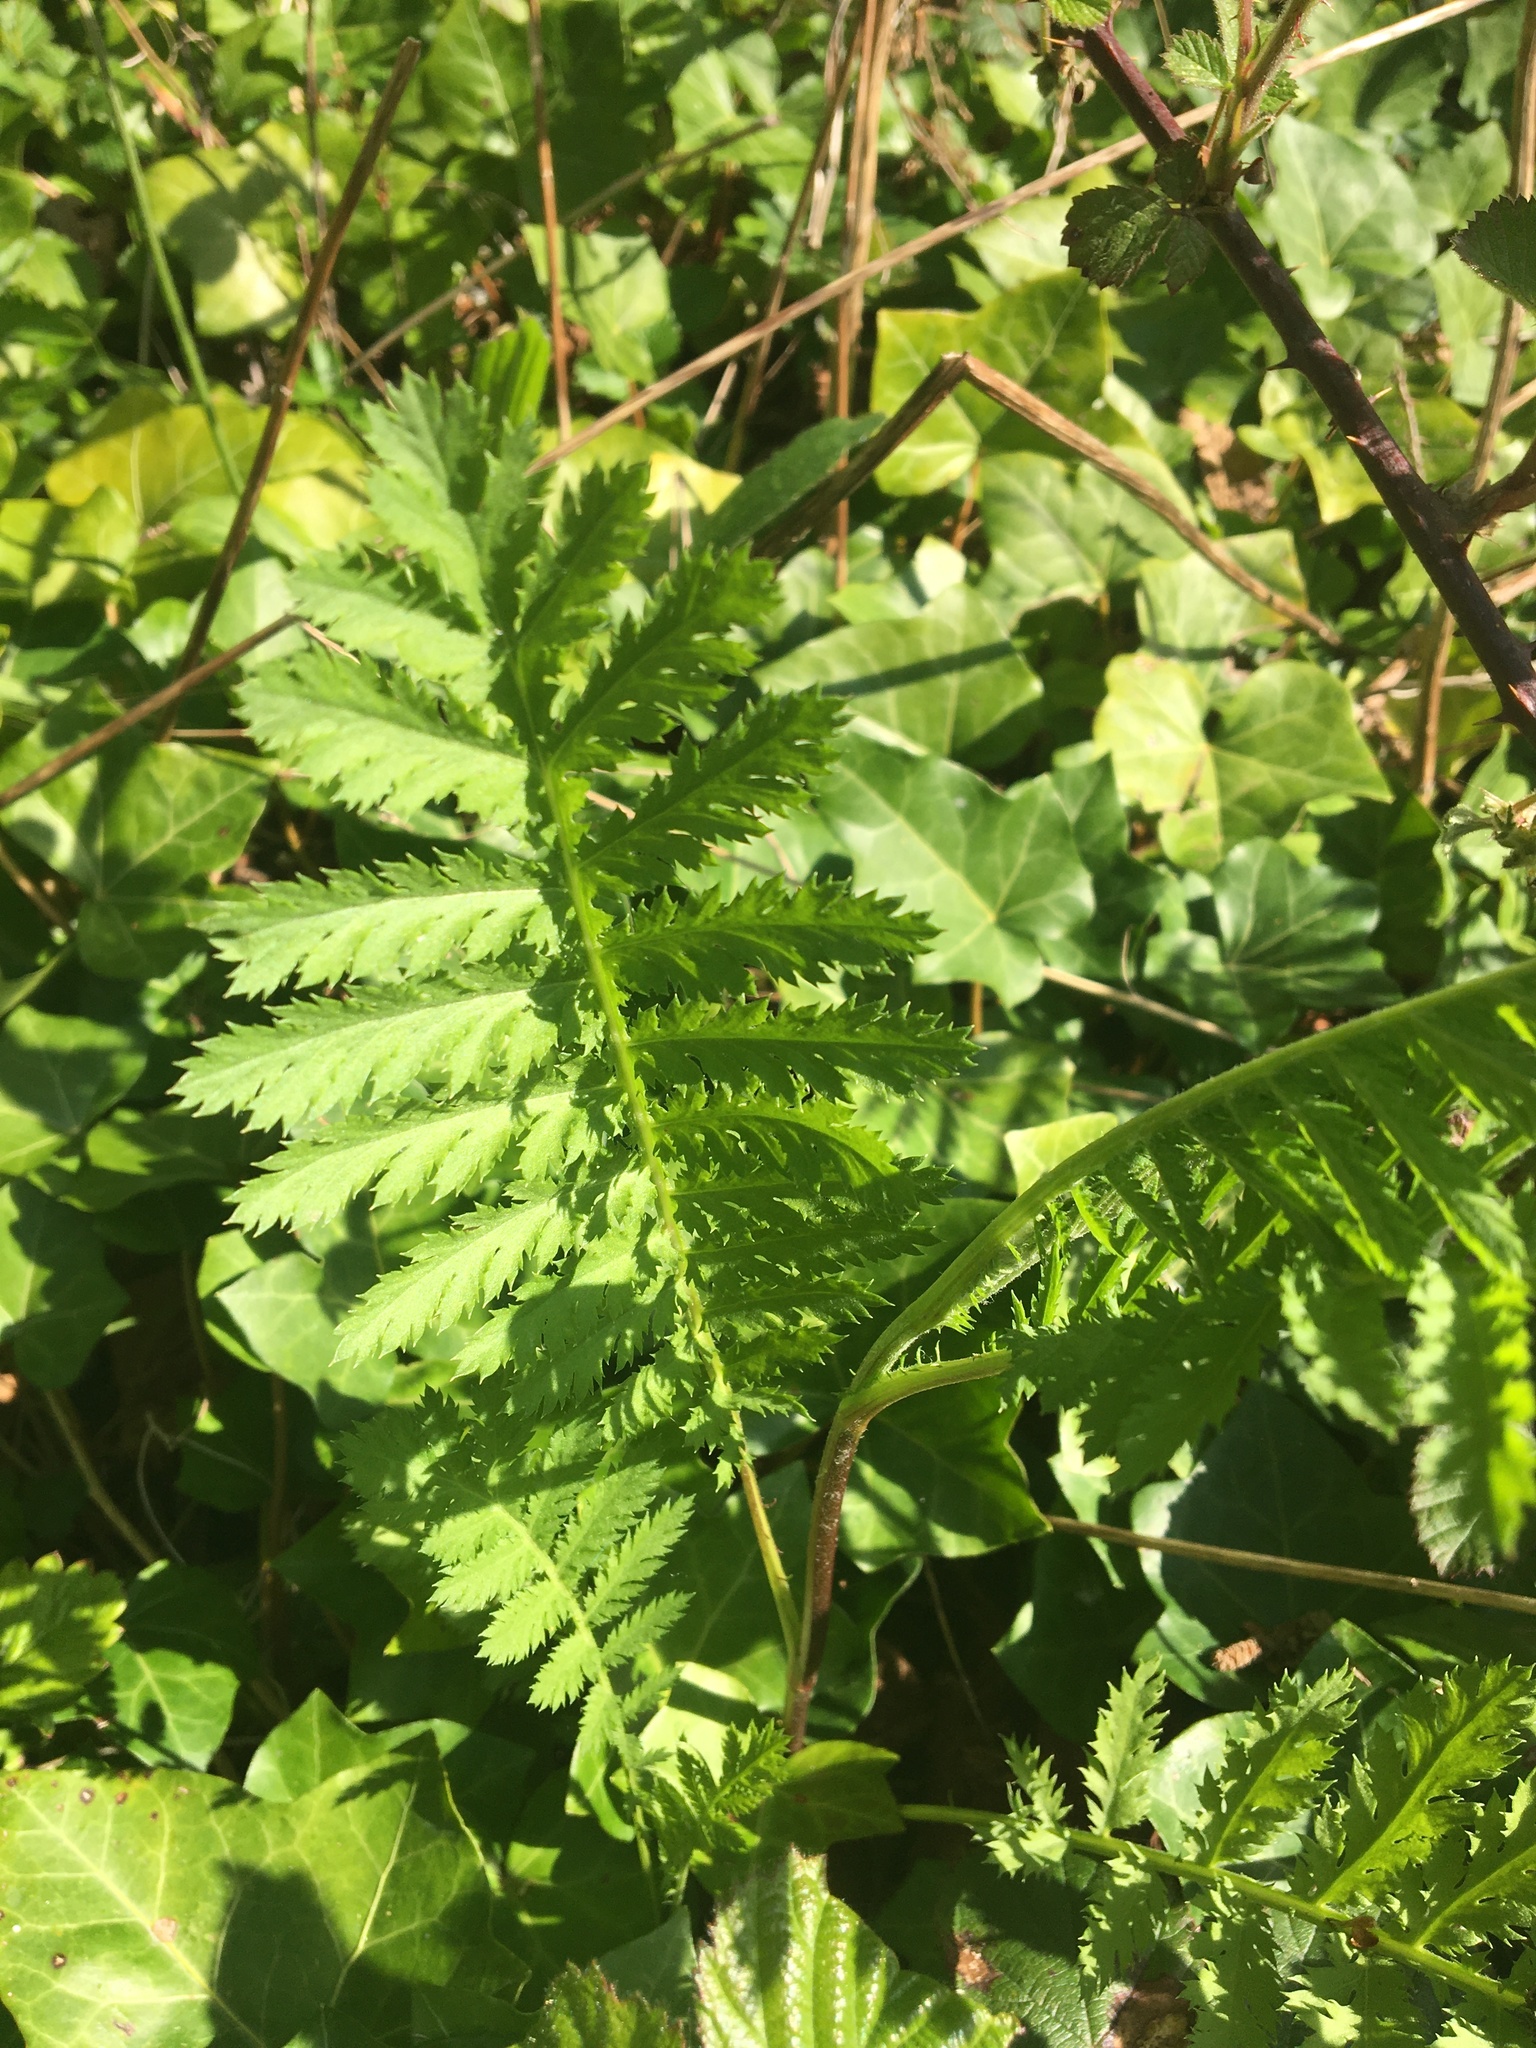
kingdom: Plantae
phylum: Tracheophyta
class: Magnoliopsida
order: Asterales
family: Asteraceae
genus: Tanacetum
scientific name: Tanacetum vulgare
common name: Common tansy
